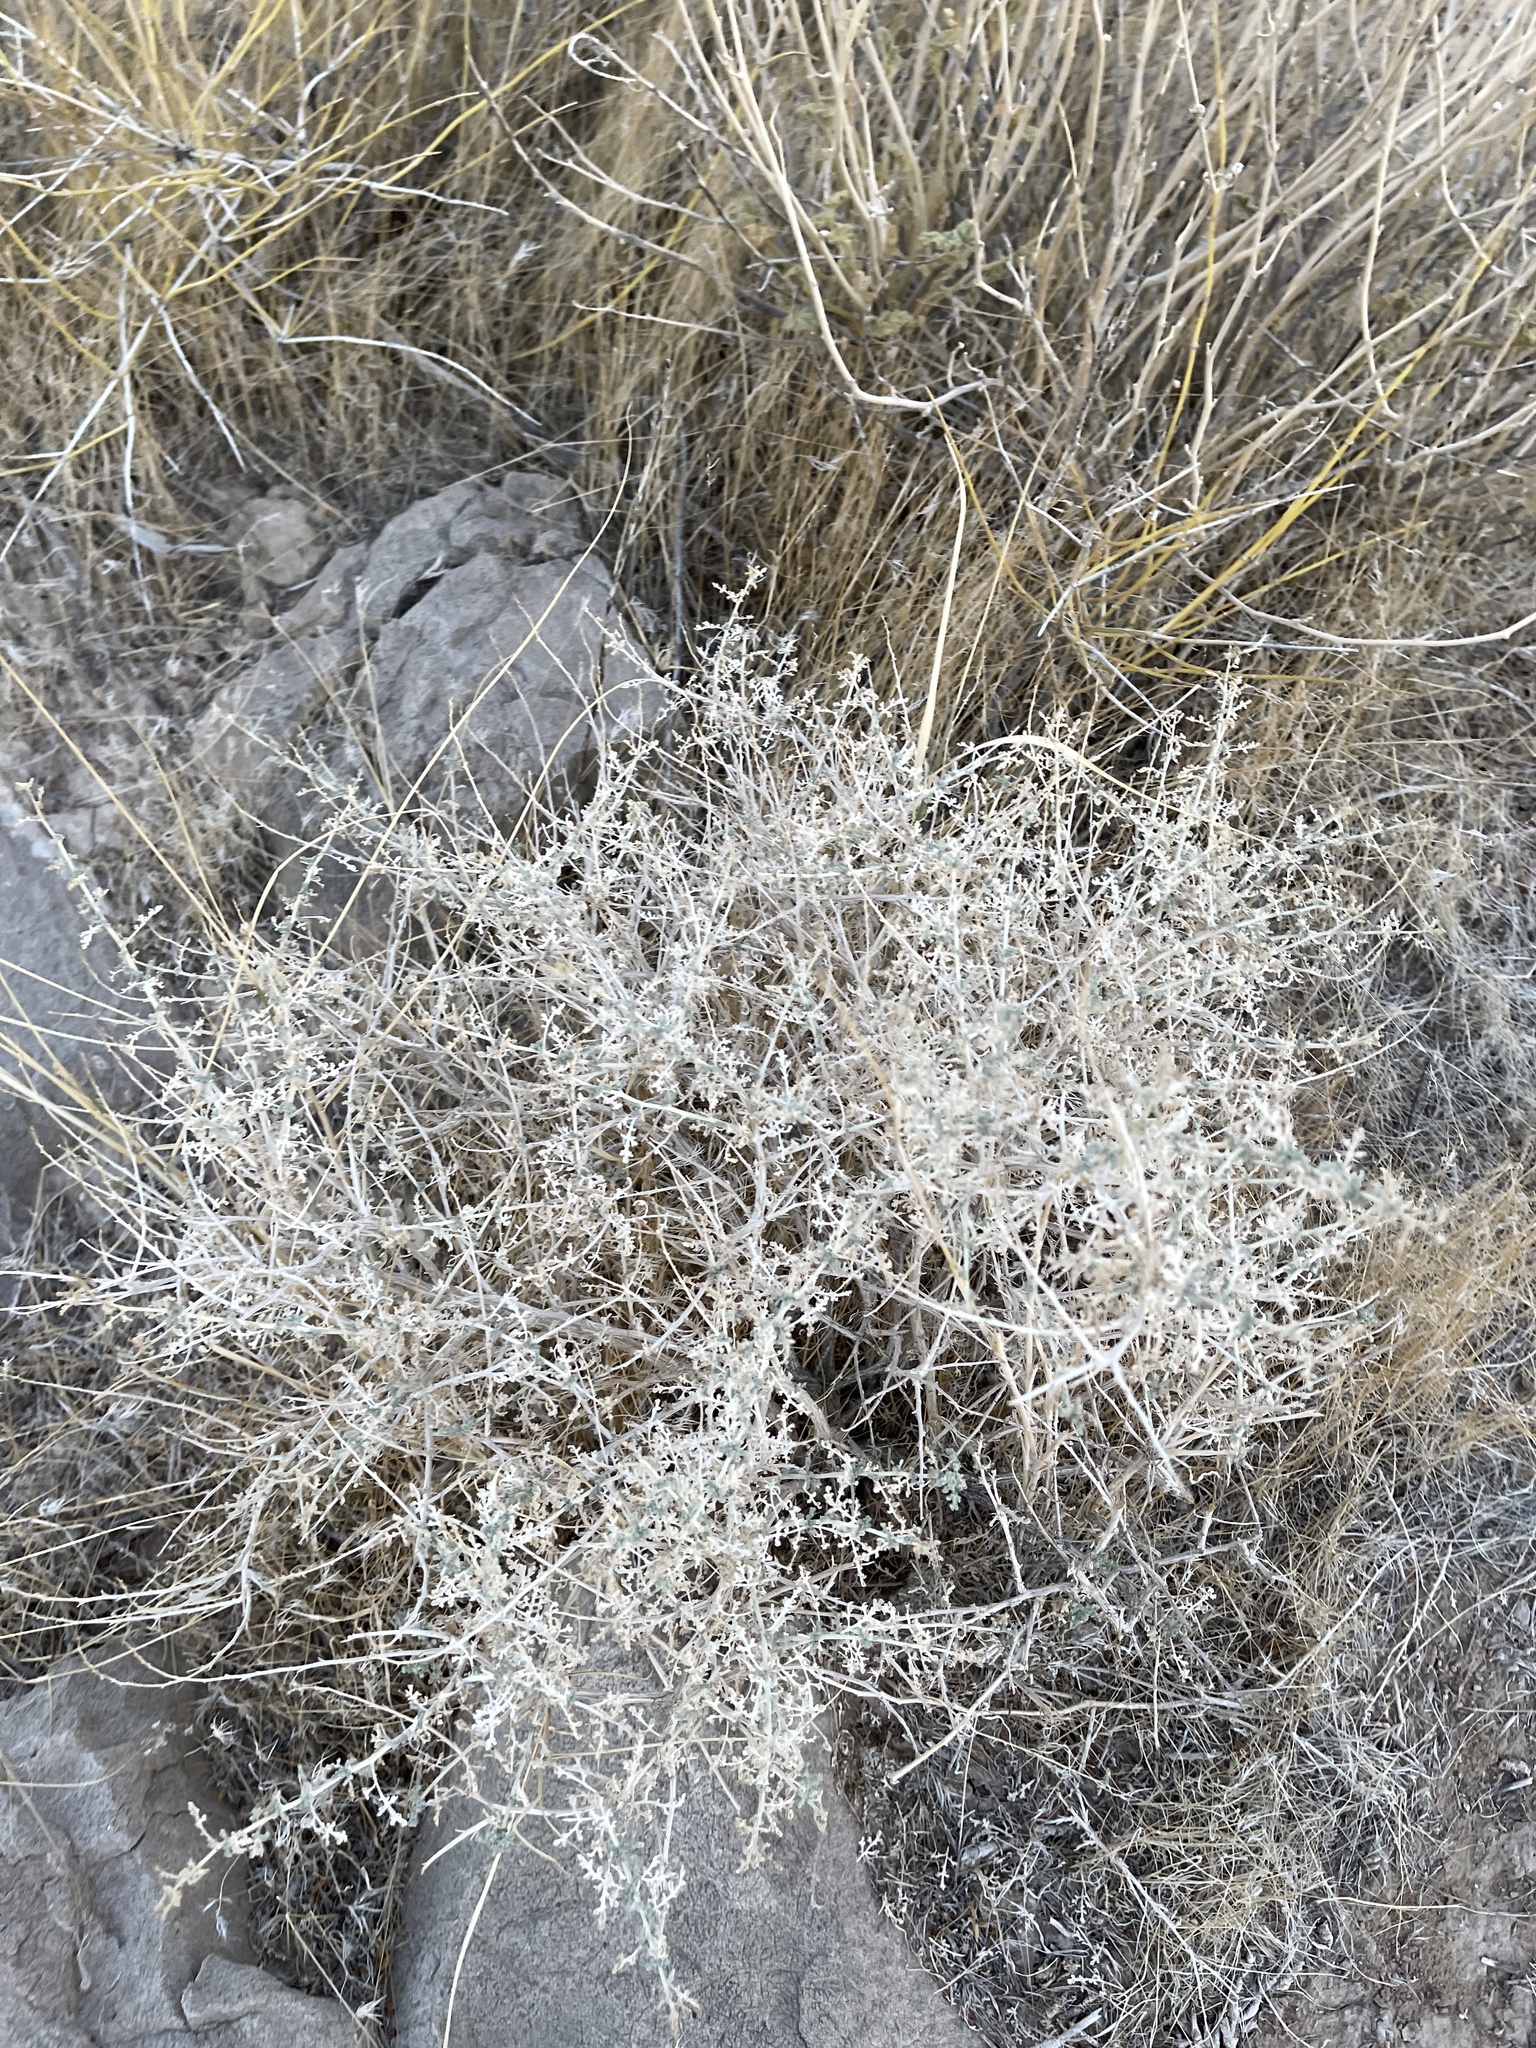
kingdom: Plantae
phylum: Tracheophyta
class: Magnoliopsida
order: Asterales
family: Asteraceae
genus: Ambrosia
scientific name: Ambrosia dumosa
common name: Bur-sage
